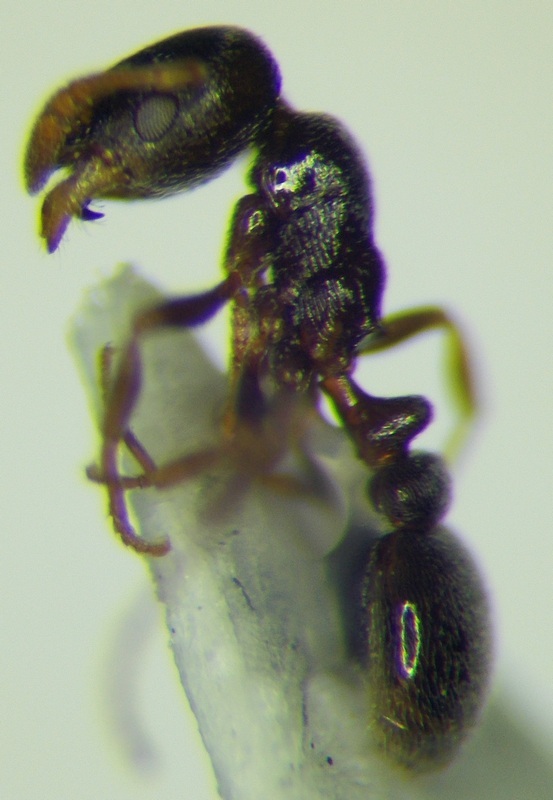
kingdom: Animalia
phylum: Arthropoda
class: Insecta
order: Hymenoptera
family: Formicidae
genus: Cardiocondyla
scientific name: Cardiocondyla stambuloffii
